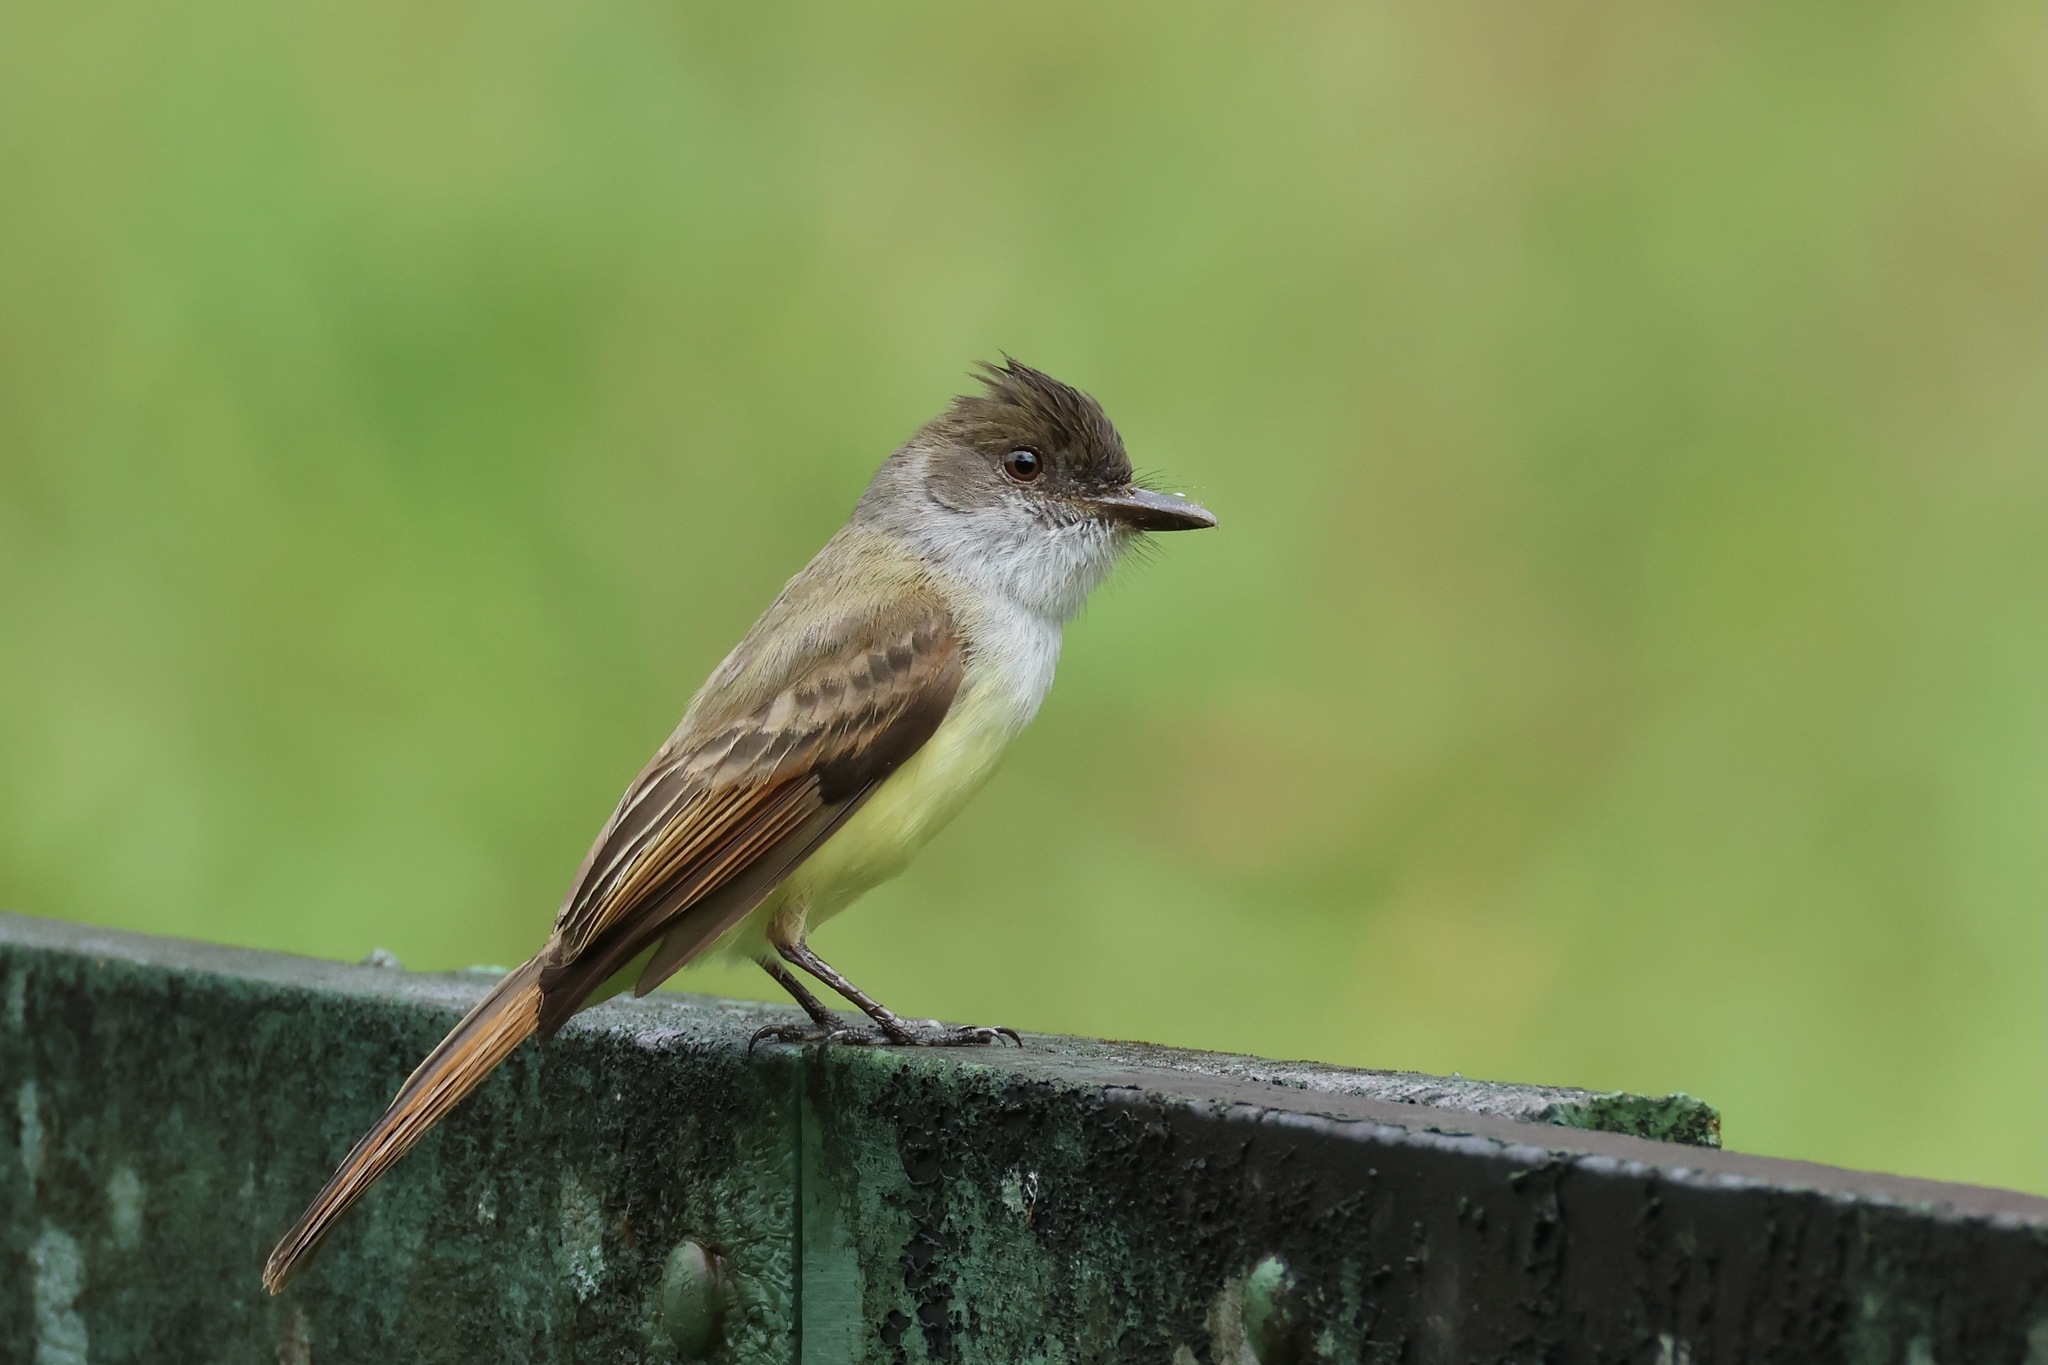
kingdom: Animalia
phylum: Chordata
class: Aves
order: Passeriformes
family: Tyrannidae
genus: Myiarchus
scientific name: Myiarchus tuberculifer
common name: Dusky-capped flycatcher
